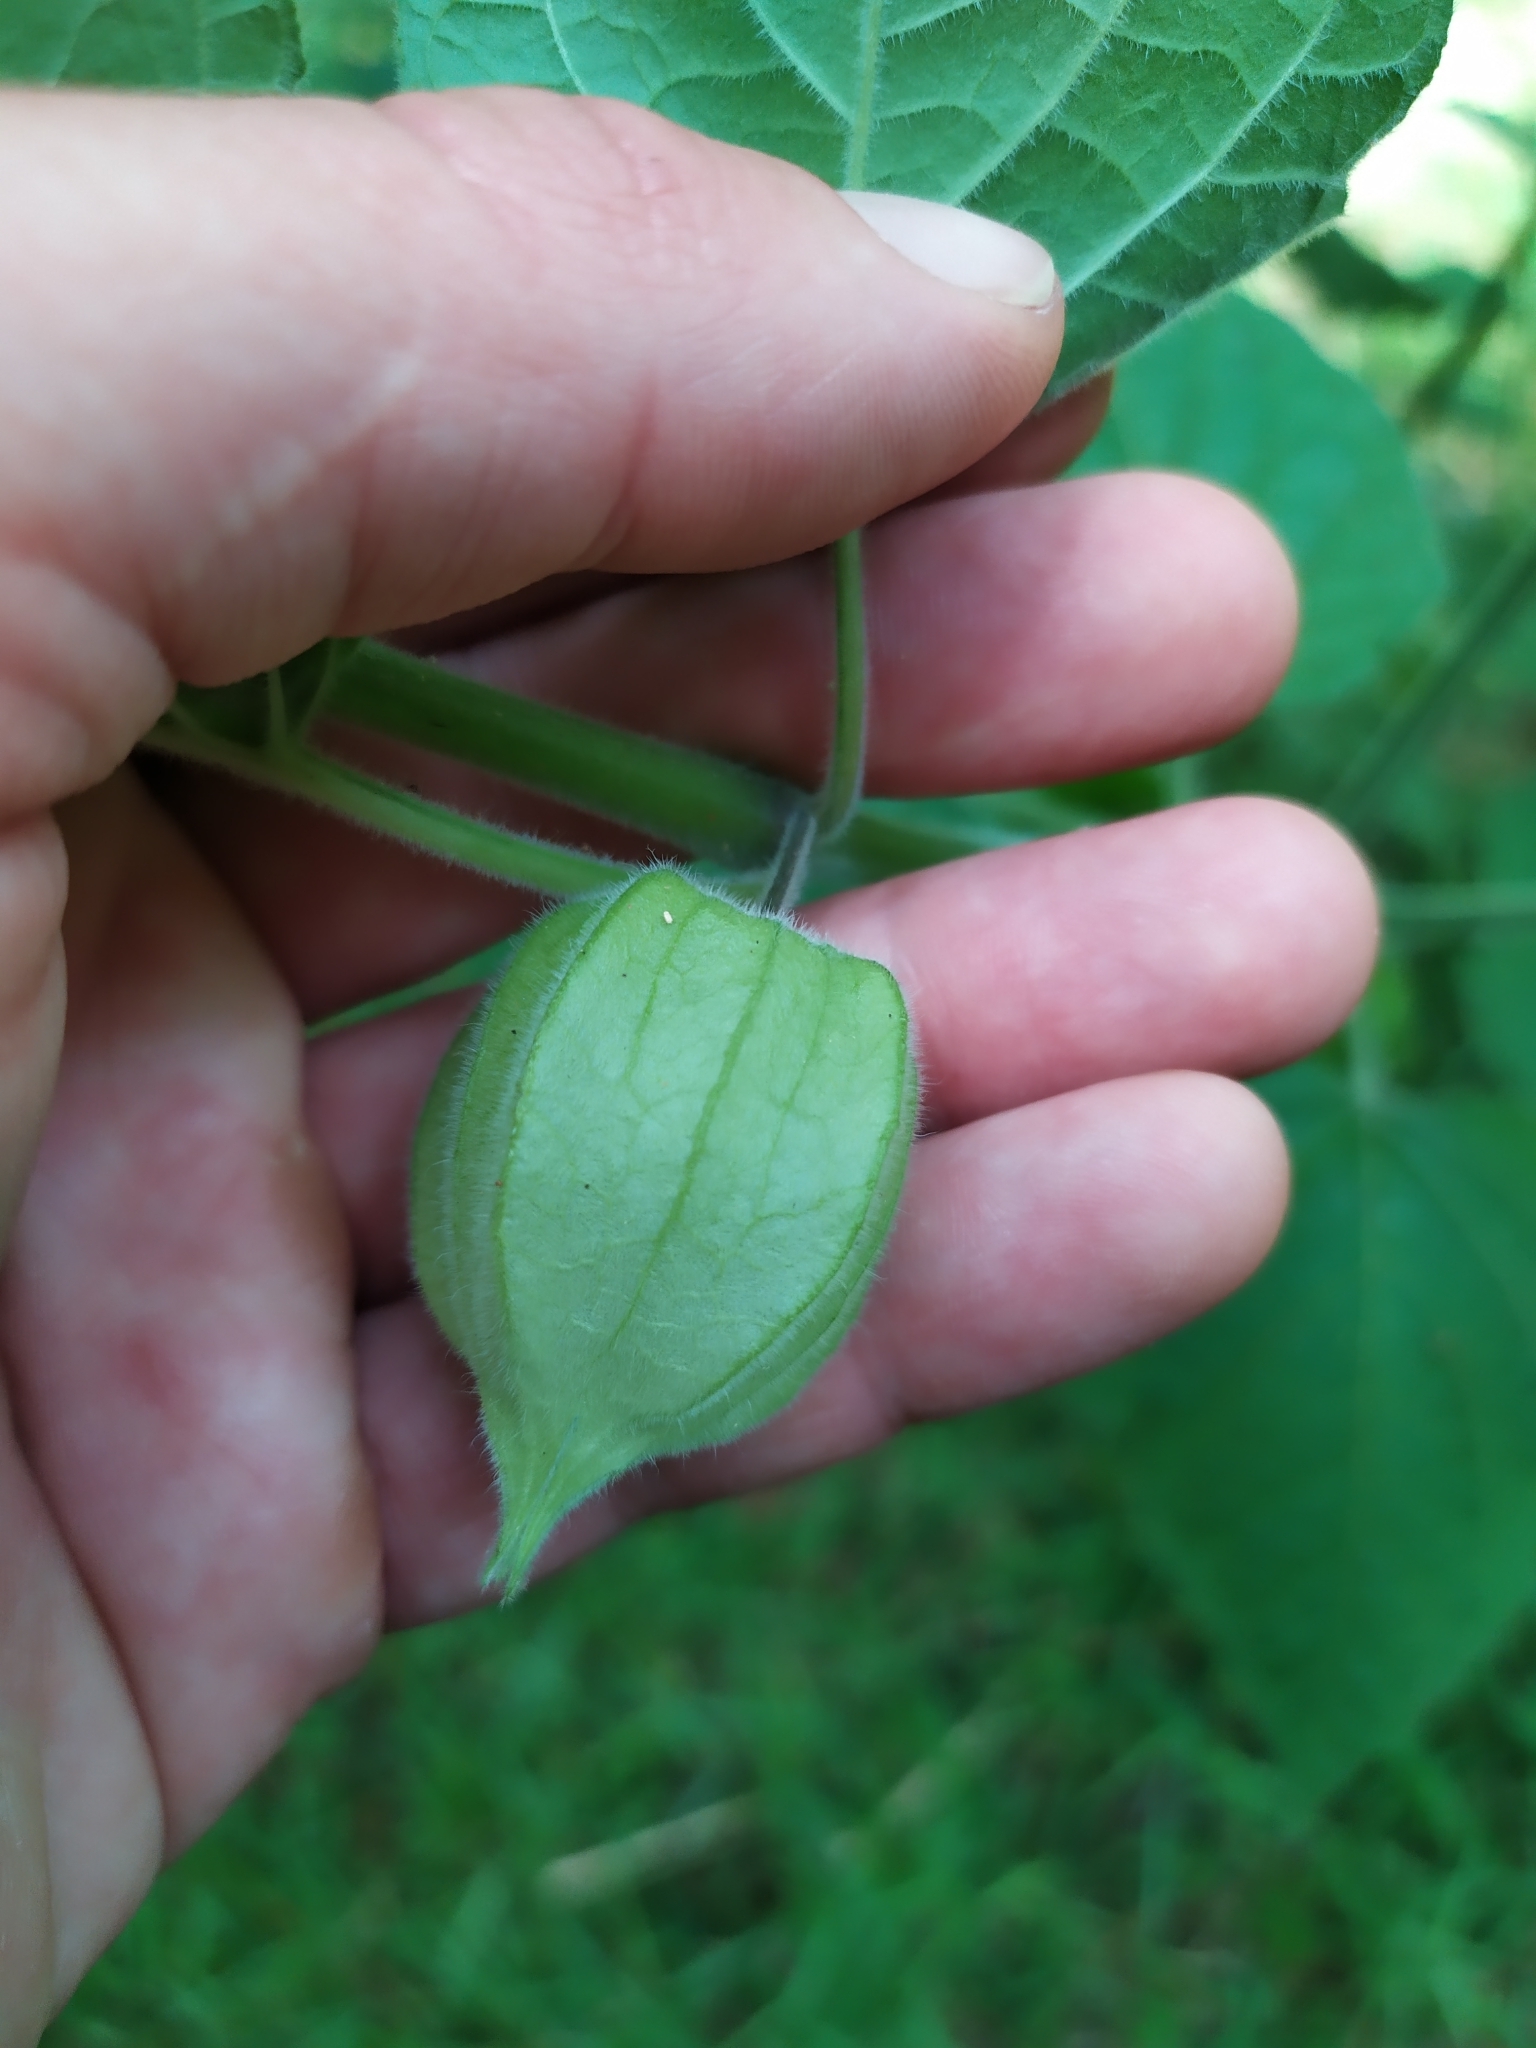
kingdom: Plantae
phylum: Tracheophyta
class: Magnoliopsida
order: Solanales
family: Solanaceae
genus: Physalis
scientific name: Physalis peruviana
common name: Cape-gooseberry
